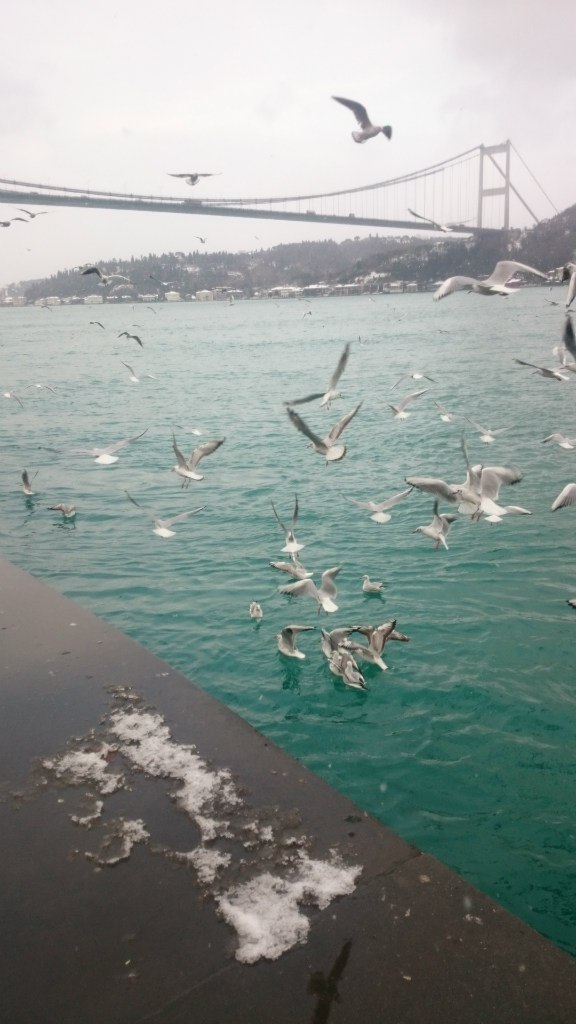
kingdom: Animalia
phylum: Chordata
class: Aves
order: Charadriiformes
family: Laridae
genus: Chroicocephalus
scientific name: Chroicocephalus ridibundus
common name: Black-headed gull
